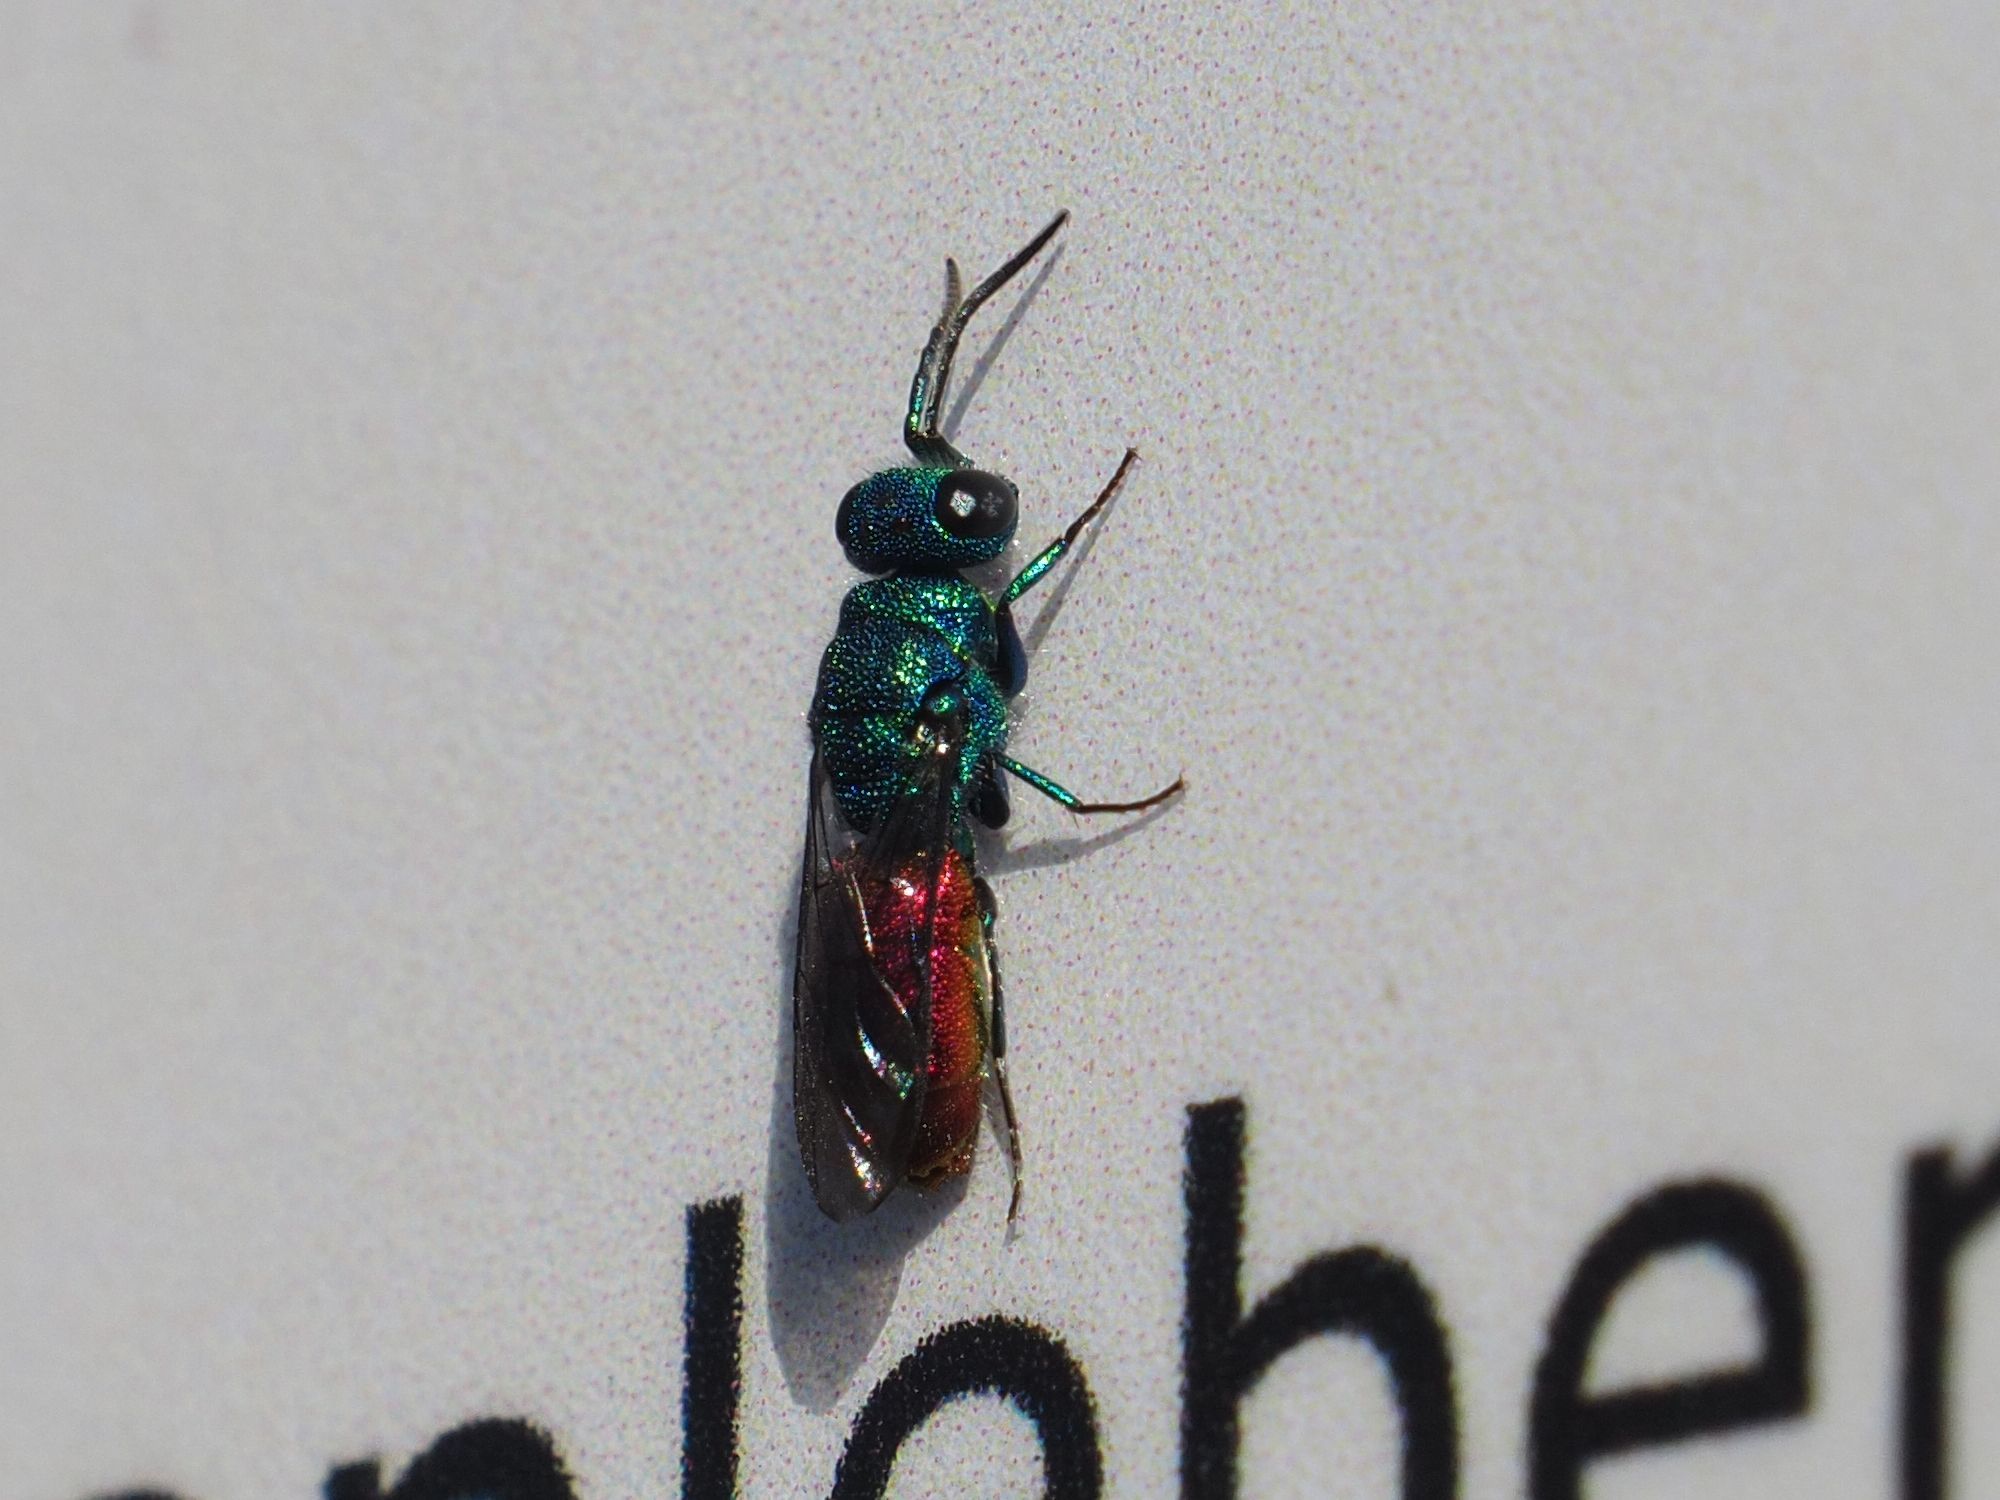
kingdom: Animalia
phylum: Arthropoda
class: Insecta
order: Hymenoptera
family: Chrysididae
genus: Chrysis
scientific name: Chrysis terminata
